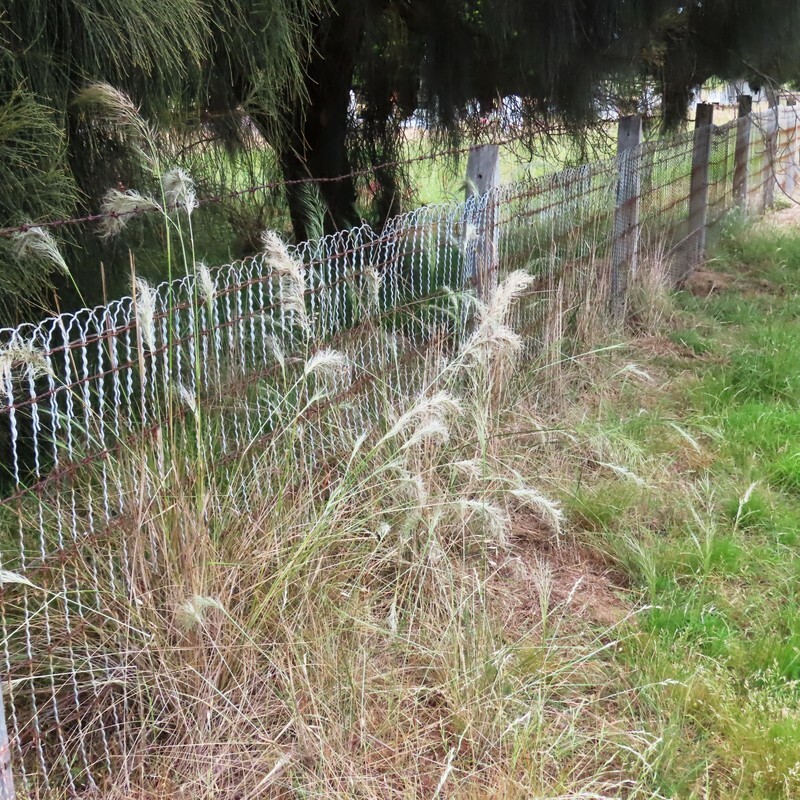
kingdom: Plantae
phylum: Tracheophyta
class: Liliopsida
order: Poales
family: Poaceae
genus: Austrostipa
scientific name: Austrostipa mollis
